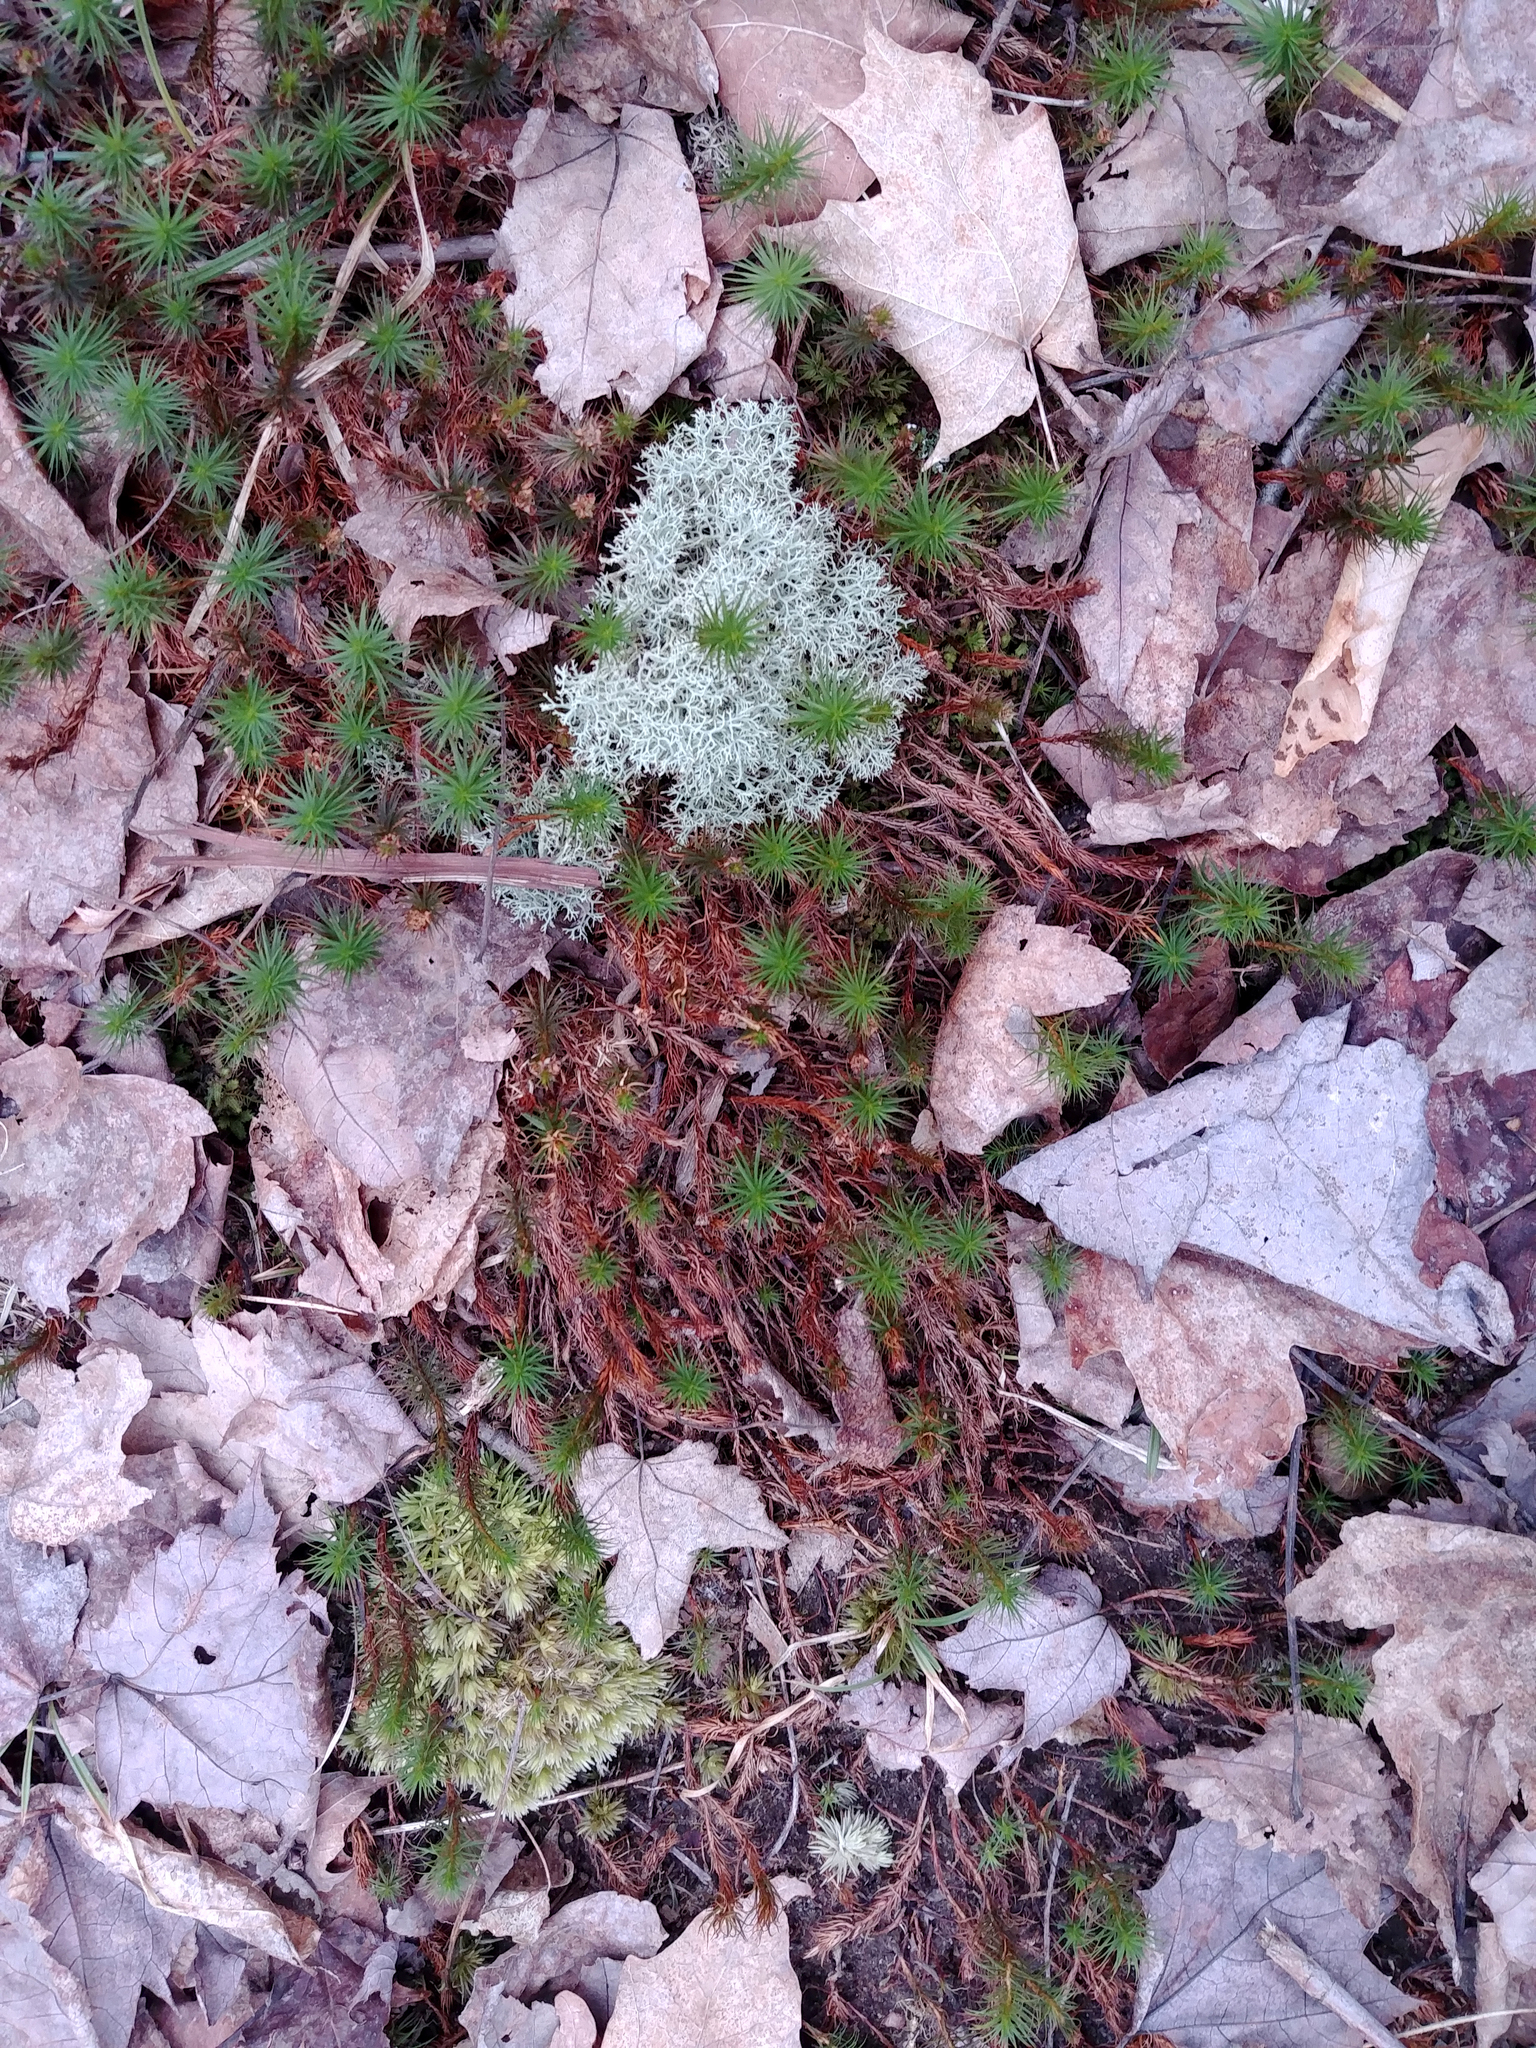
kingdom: Plantae
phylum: Bryophyta
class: Polytrichopsida
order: Polytrichales
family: Polytrichaceae
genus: Polytrichum
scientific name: Polytrichum commune
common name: Common haircap
